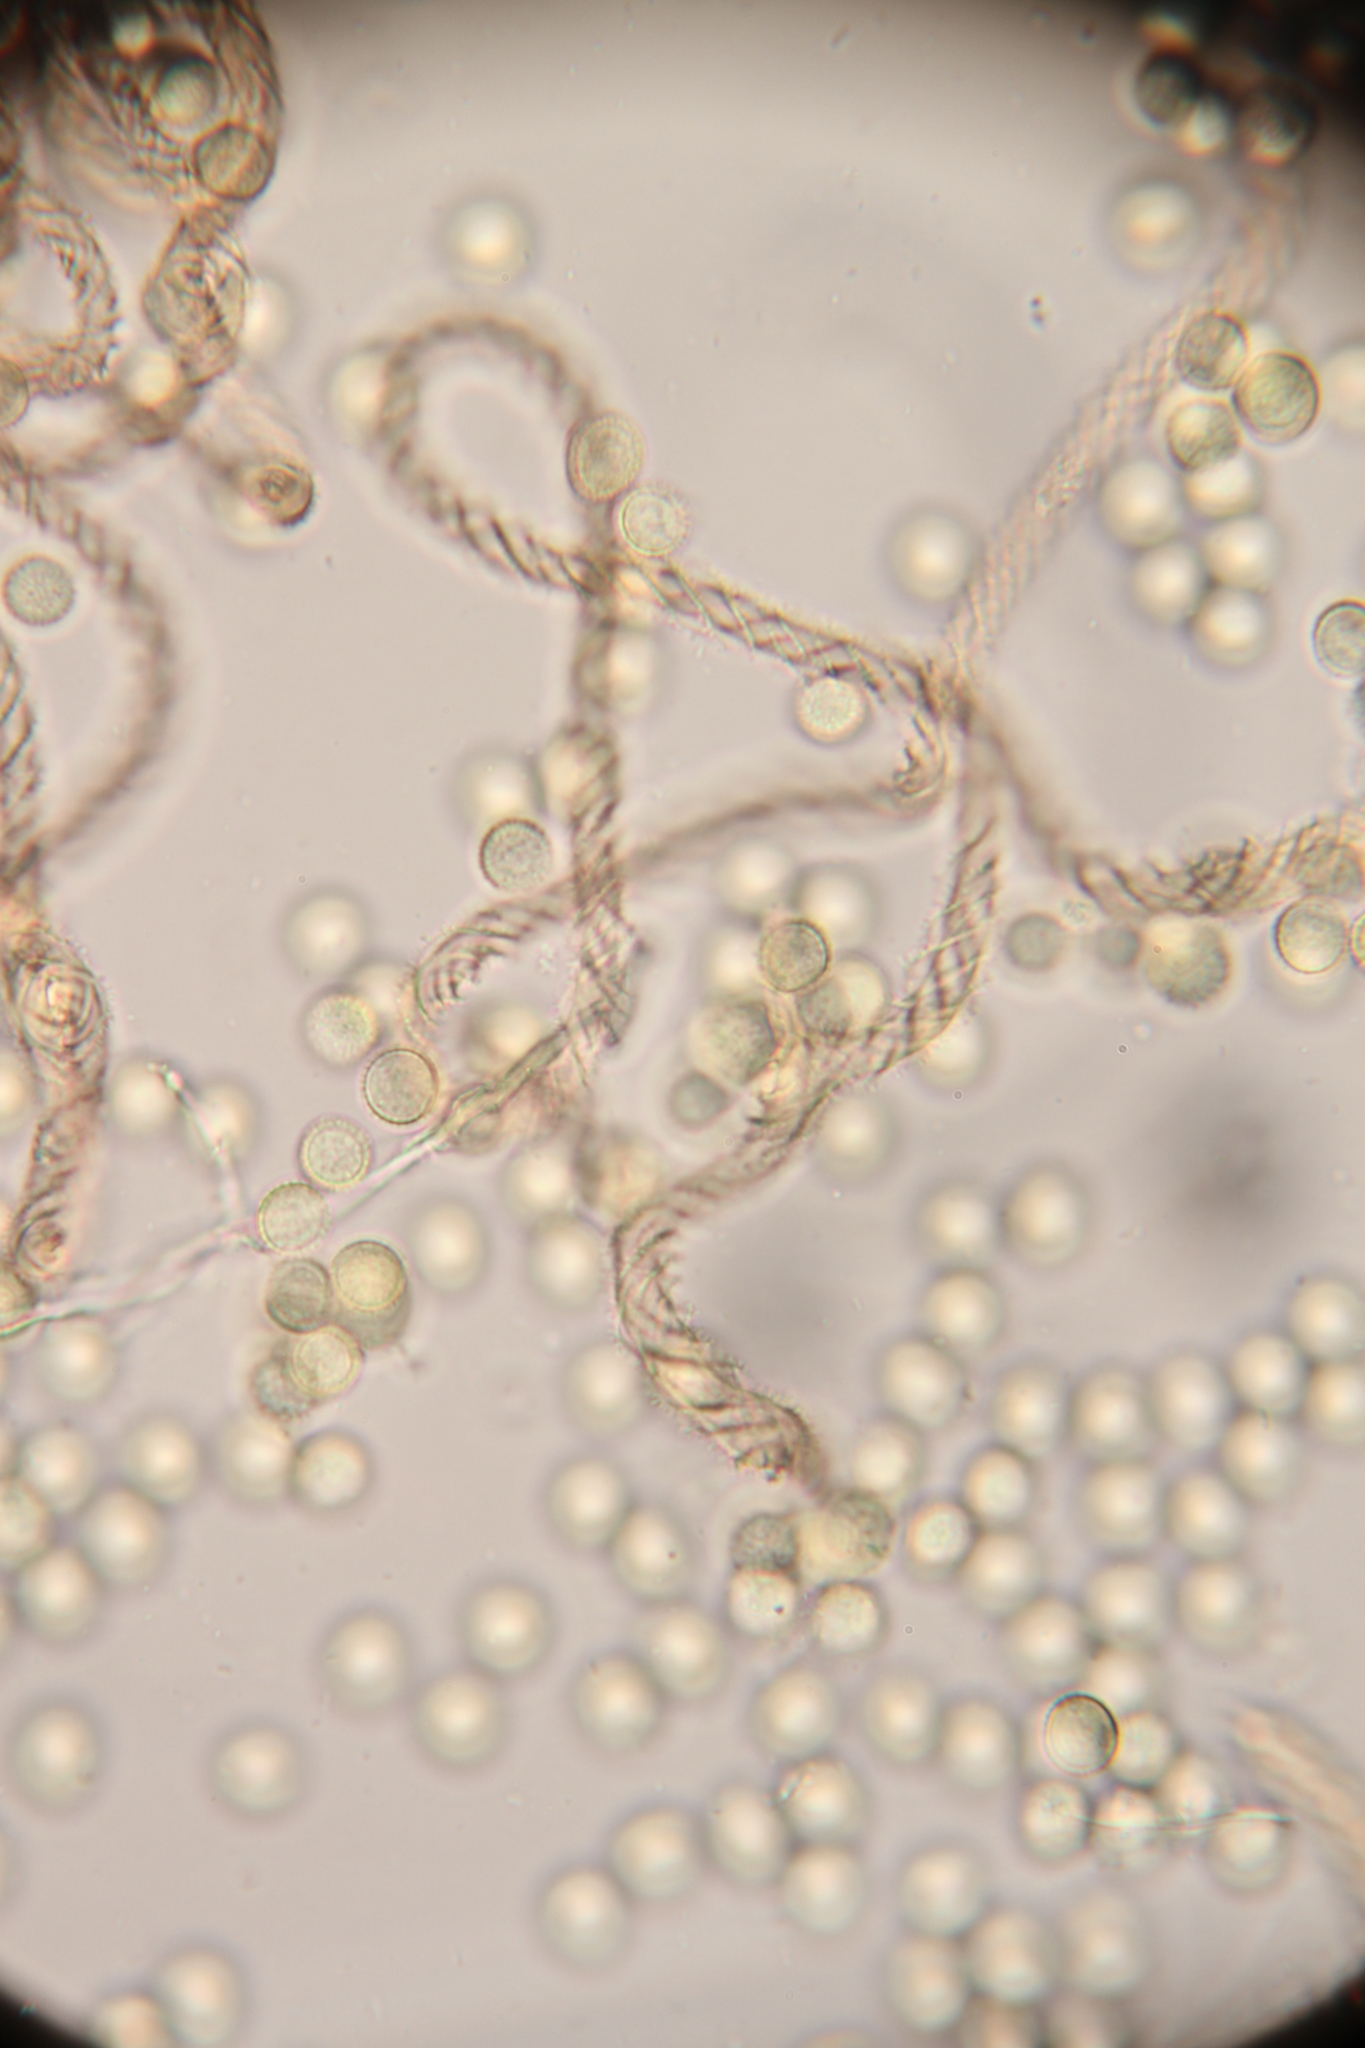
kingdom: Protozoa
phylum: Mycetozoa
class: Myxomycetes
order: Trichiales
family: Arcyriaceae
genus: Hemitrichia
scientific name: Hemitrichia clavata
